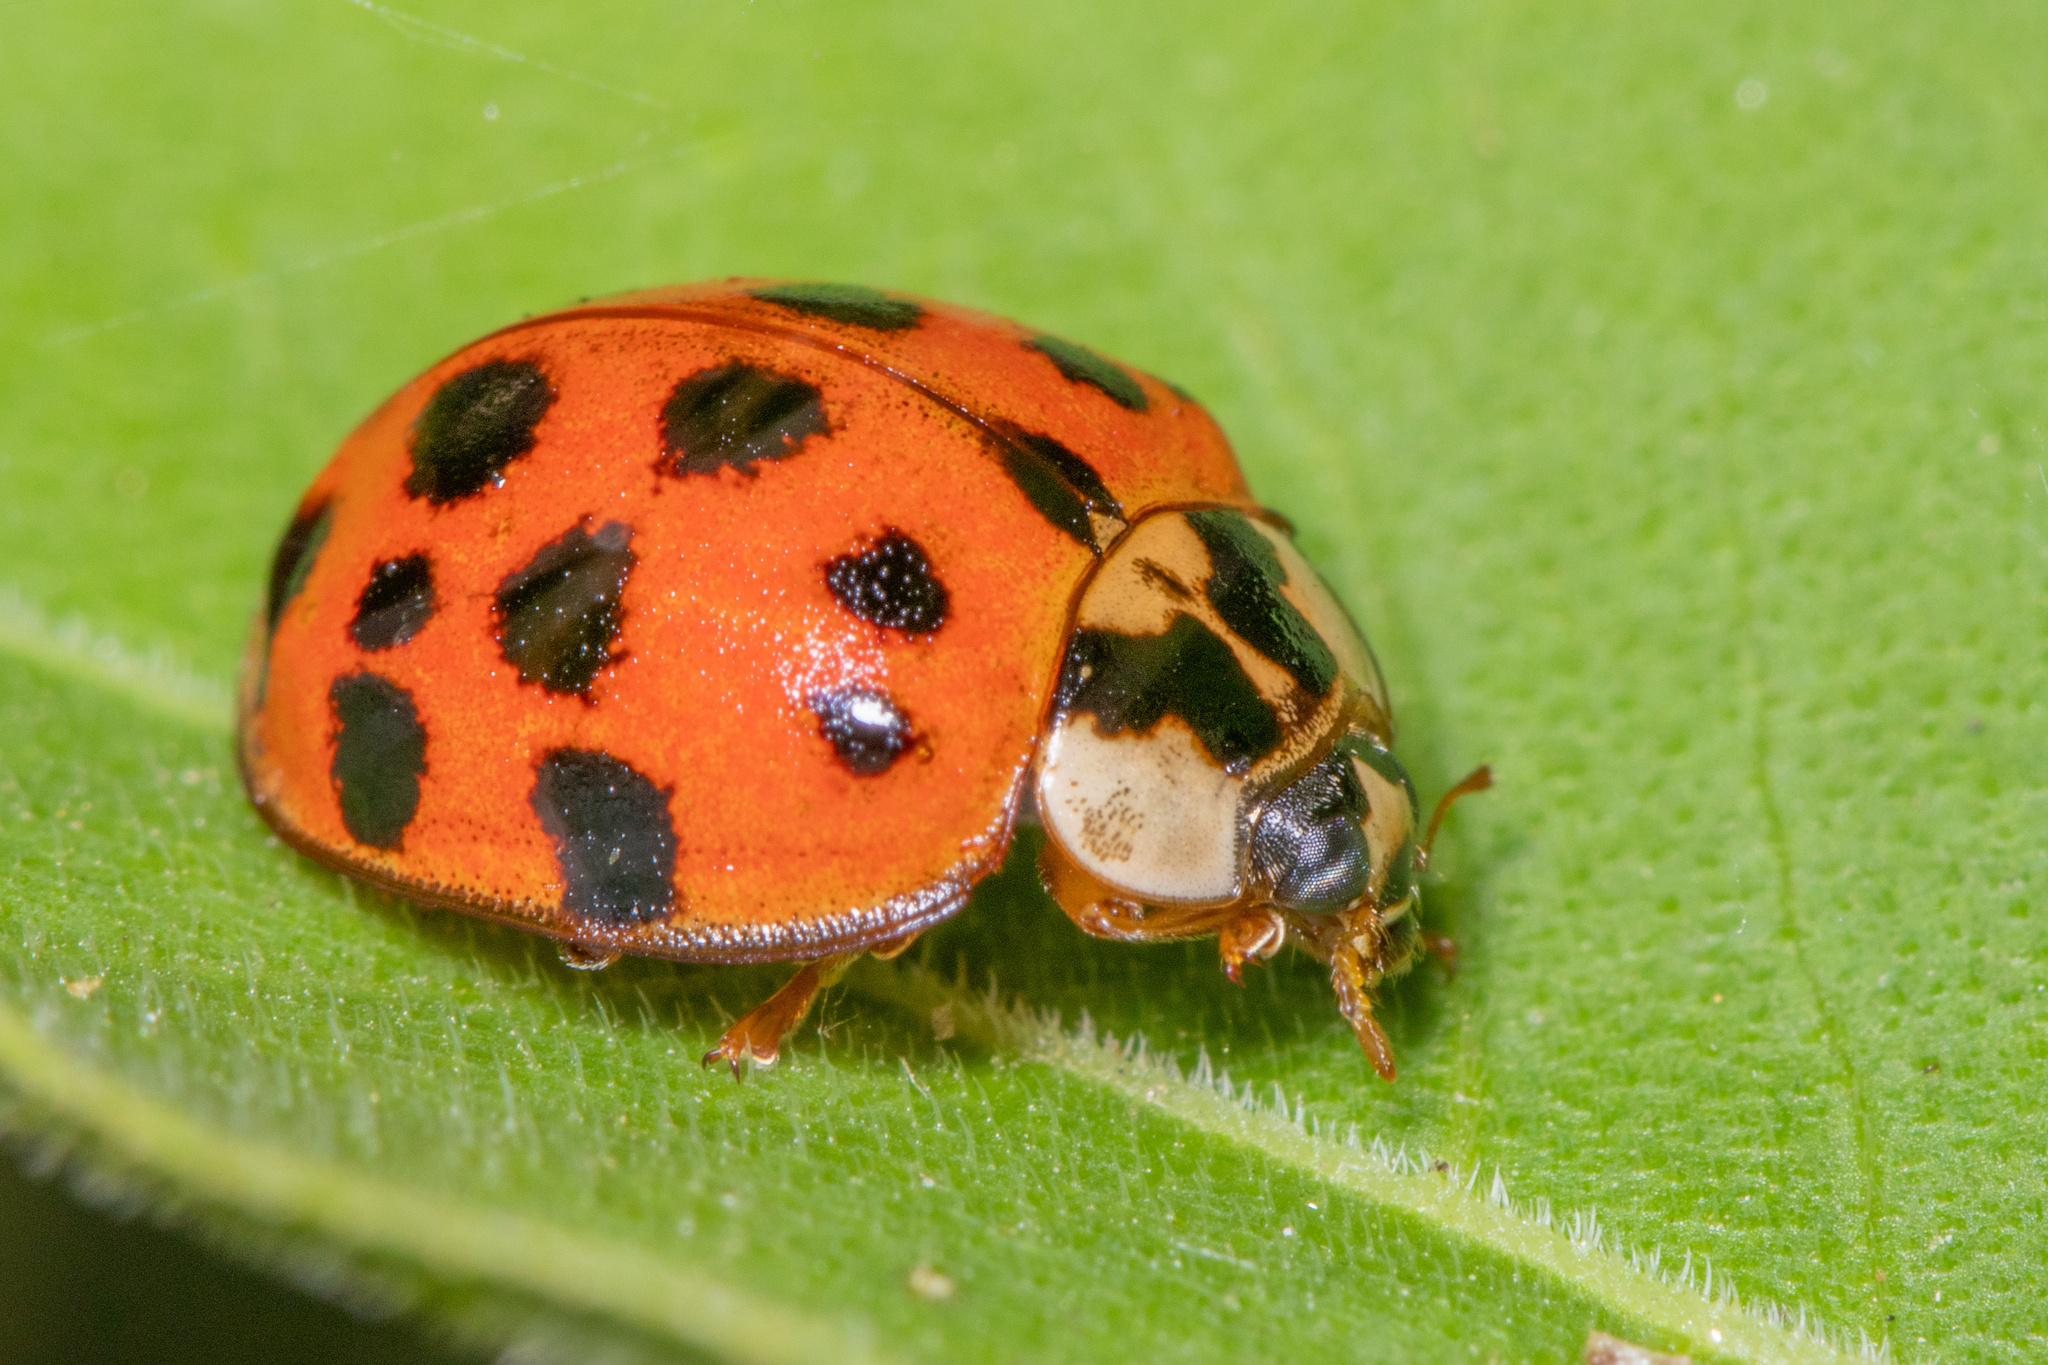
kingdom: Animalia
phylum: Arthropoda
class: Insecta
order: Coleoptera
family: Coccinellidae
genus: Harmonia
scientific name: Harmonia axyridis
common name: Harlequin ladybird
